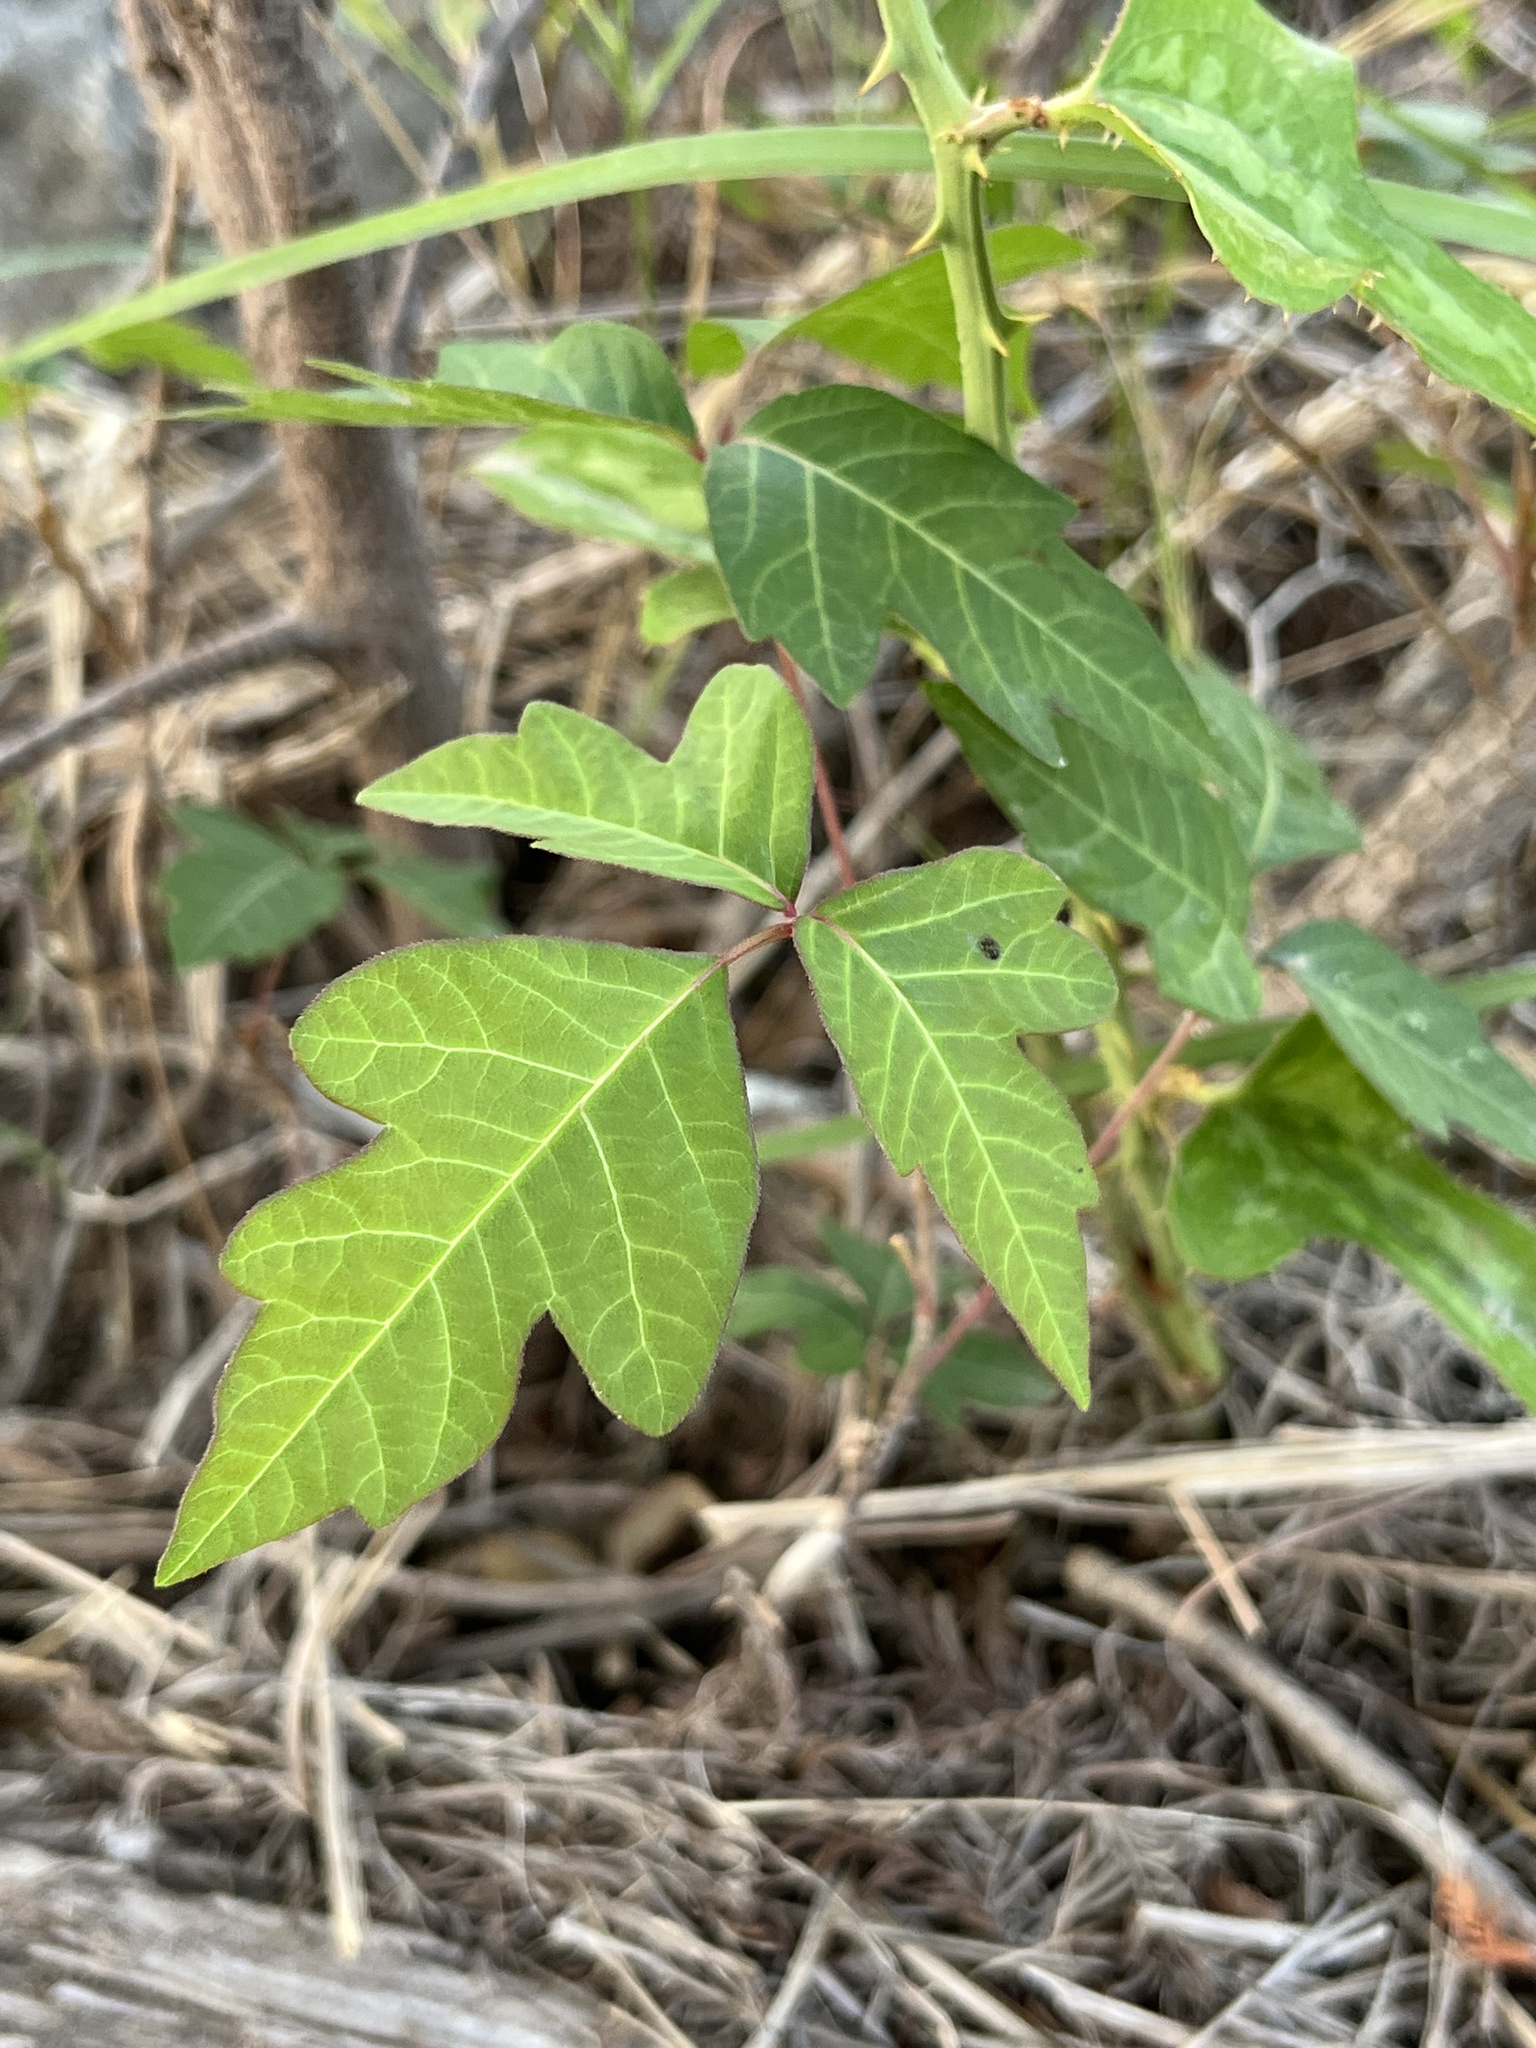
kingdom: Plantae
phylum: Tracheophyta
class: Magnoliopsida
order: Sapindales
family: Anacardiaceae
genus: Toxicodendron
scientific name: Toxicodendron radicans
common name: Poison ivy
